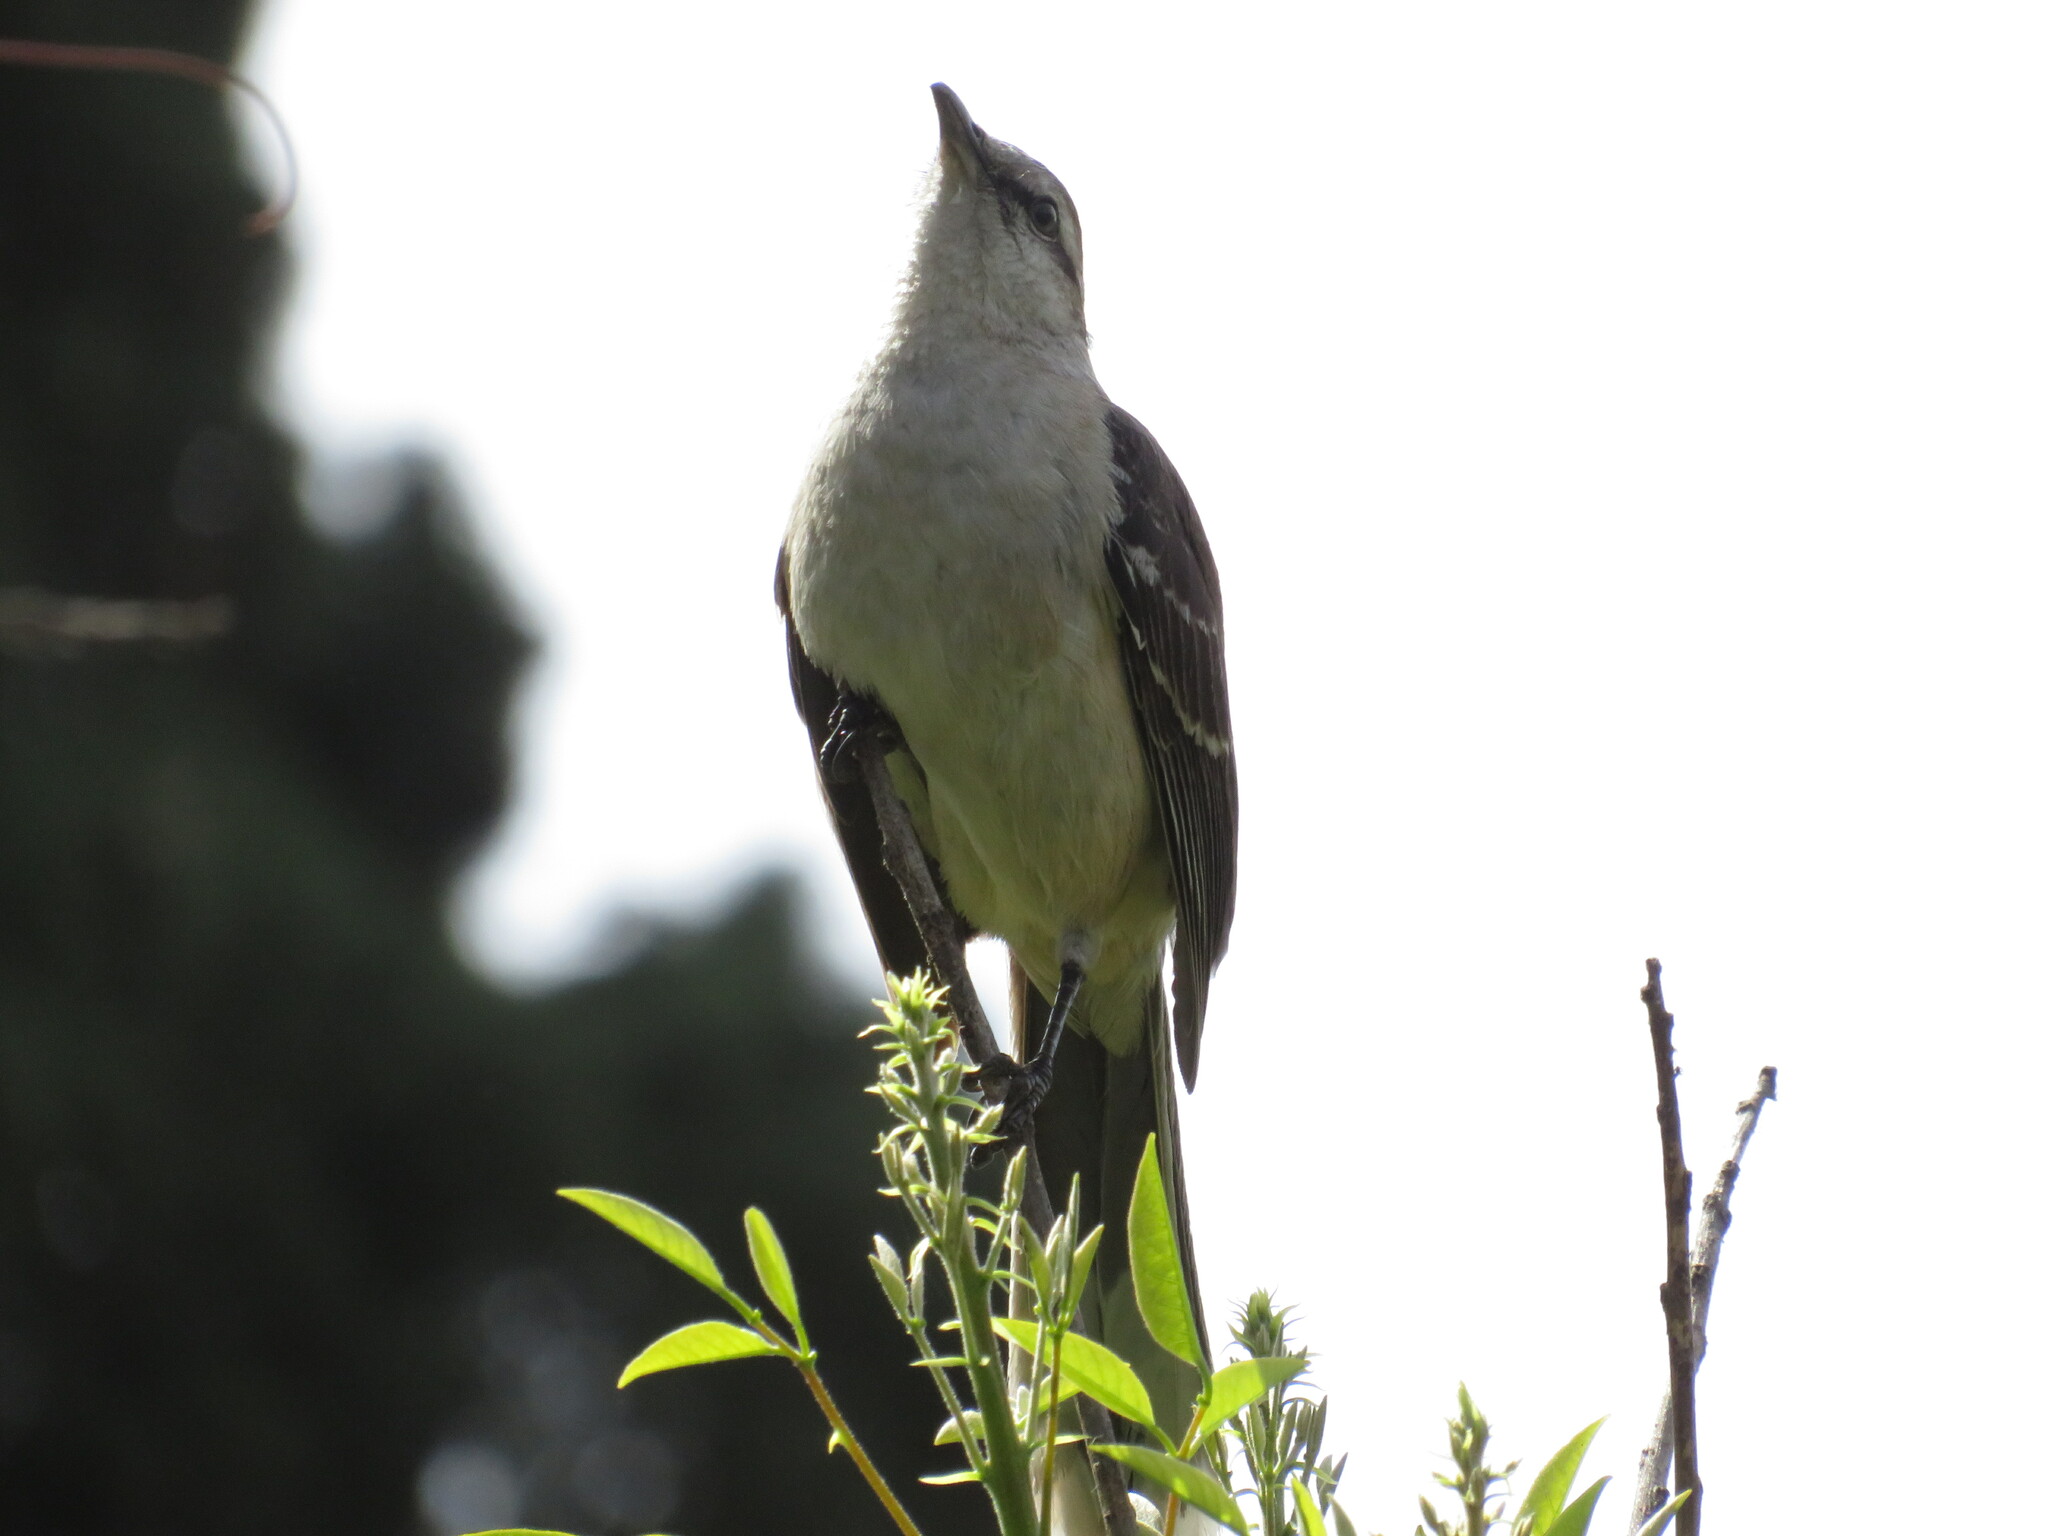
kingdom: Animalia
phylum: Chordata
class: Aves
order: Passeriformes
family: Mimidae
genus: Mimus
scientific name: Mimus saturninus
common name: Chalk-browed mockingbird
